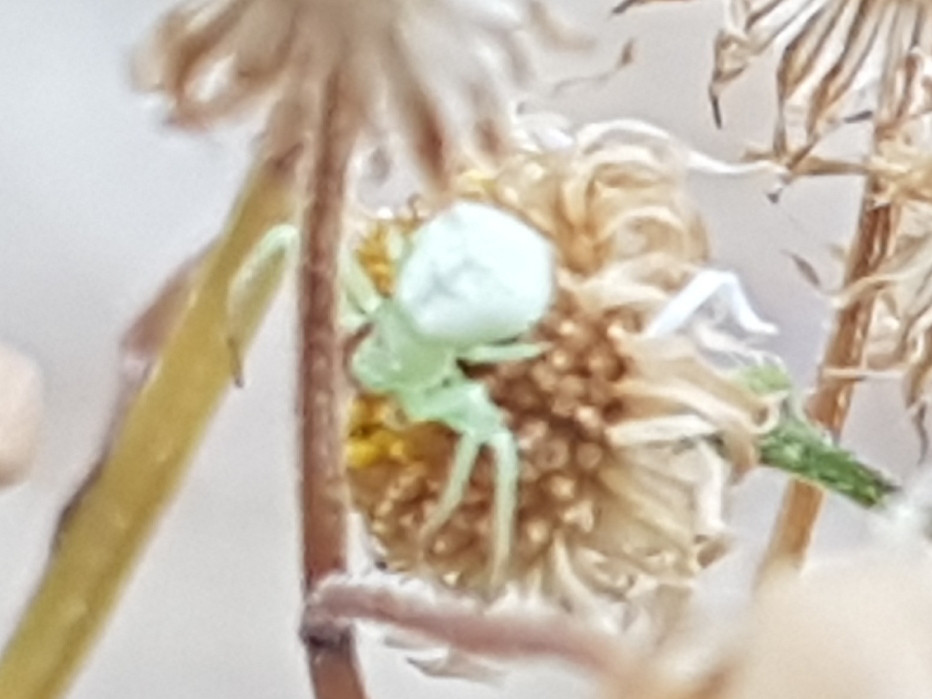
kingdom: Animalia
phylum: Arthropoda
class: Arachnida
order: Araneae
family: Thomisidae
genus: Ebrechtella
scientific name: Ebrechtella tricuspidata
